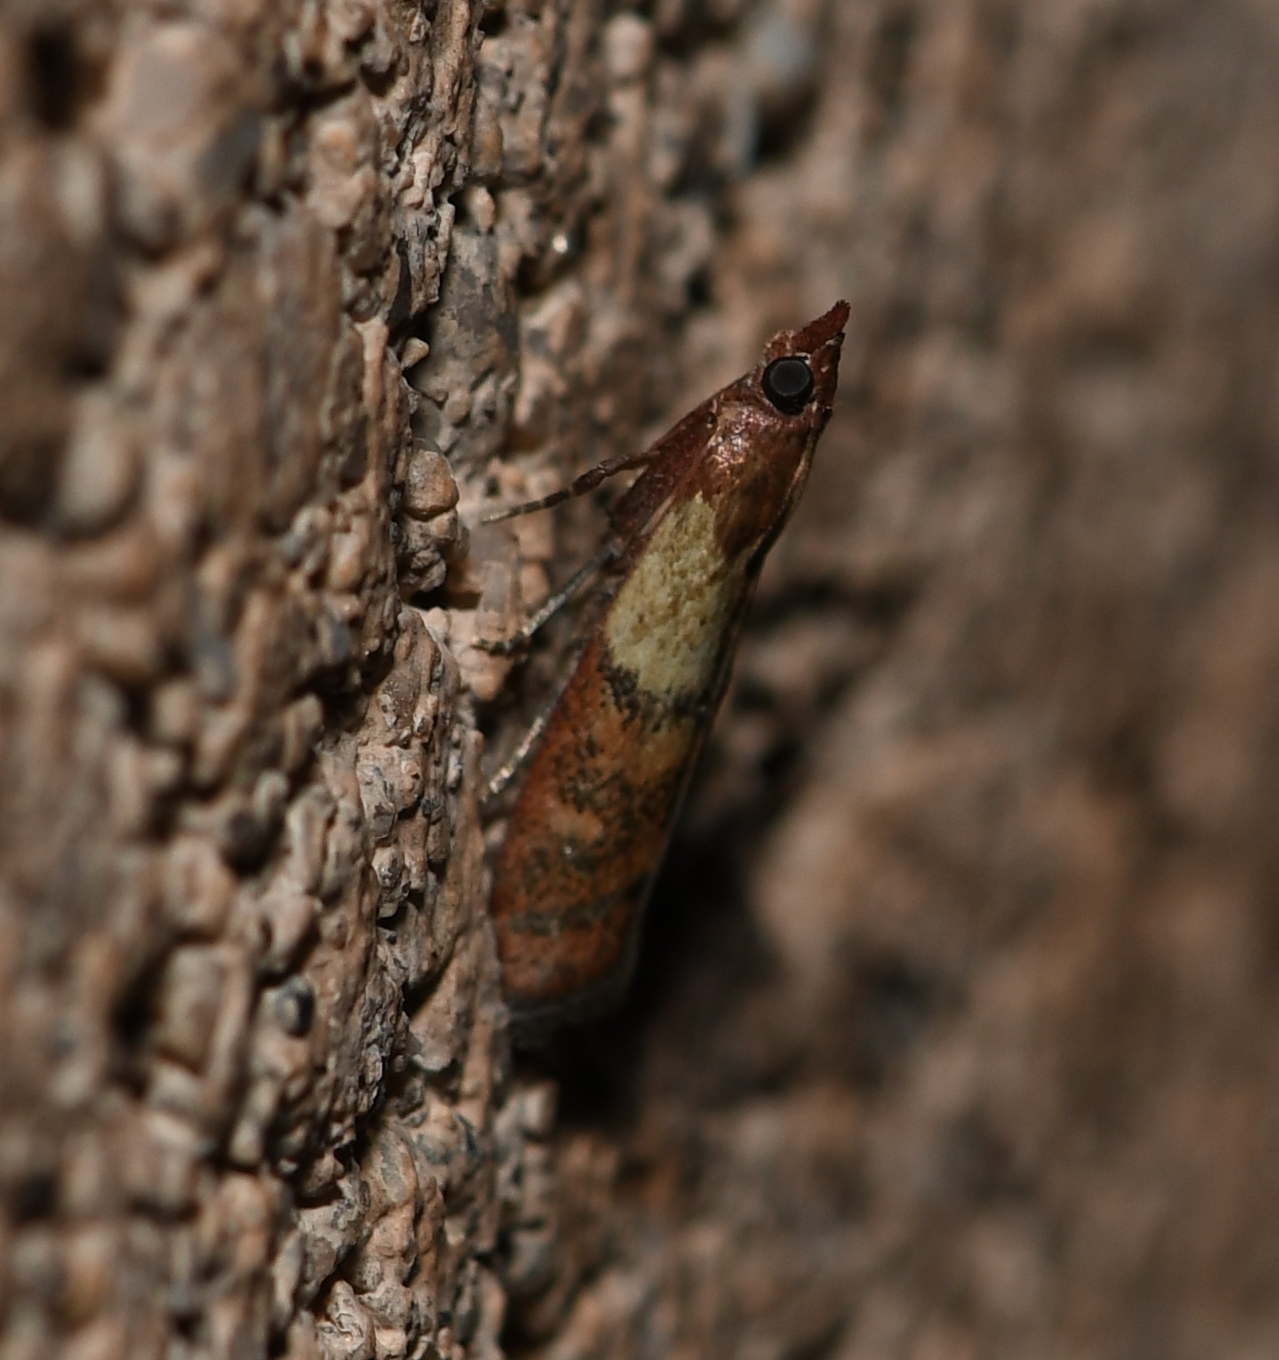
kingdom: Animalia
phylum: Arthropoda
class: Insecta
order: Lepidoptera
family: Pyralidae
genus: Plodia
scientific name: Plodia interpunctella
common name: Indian meal moth
